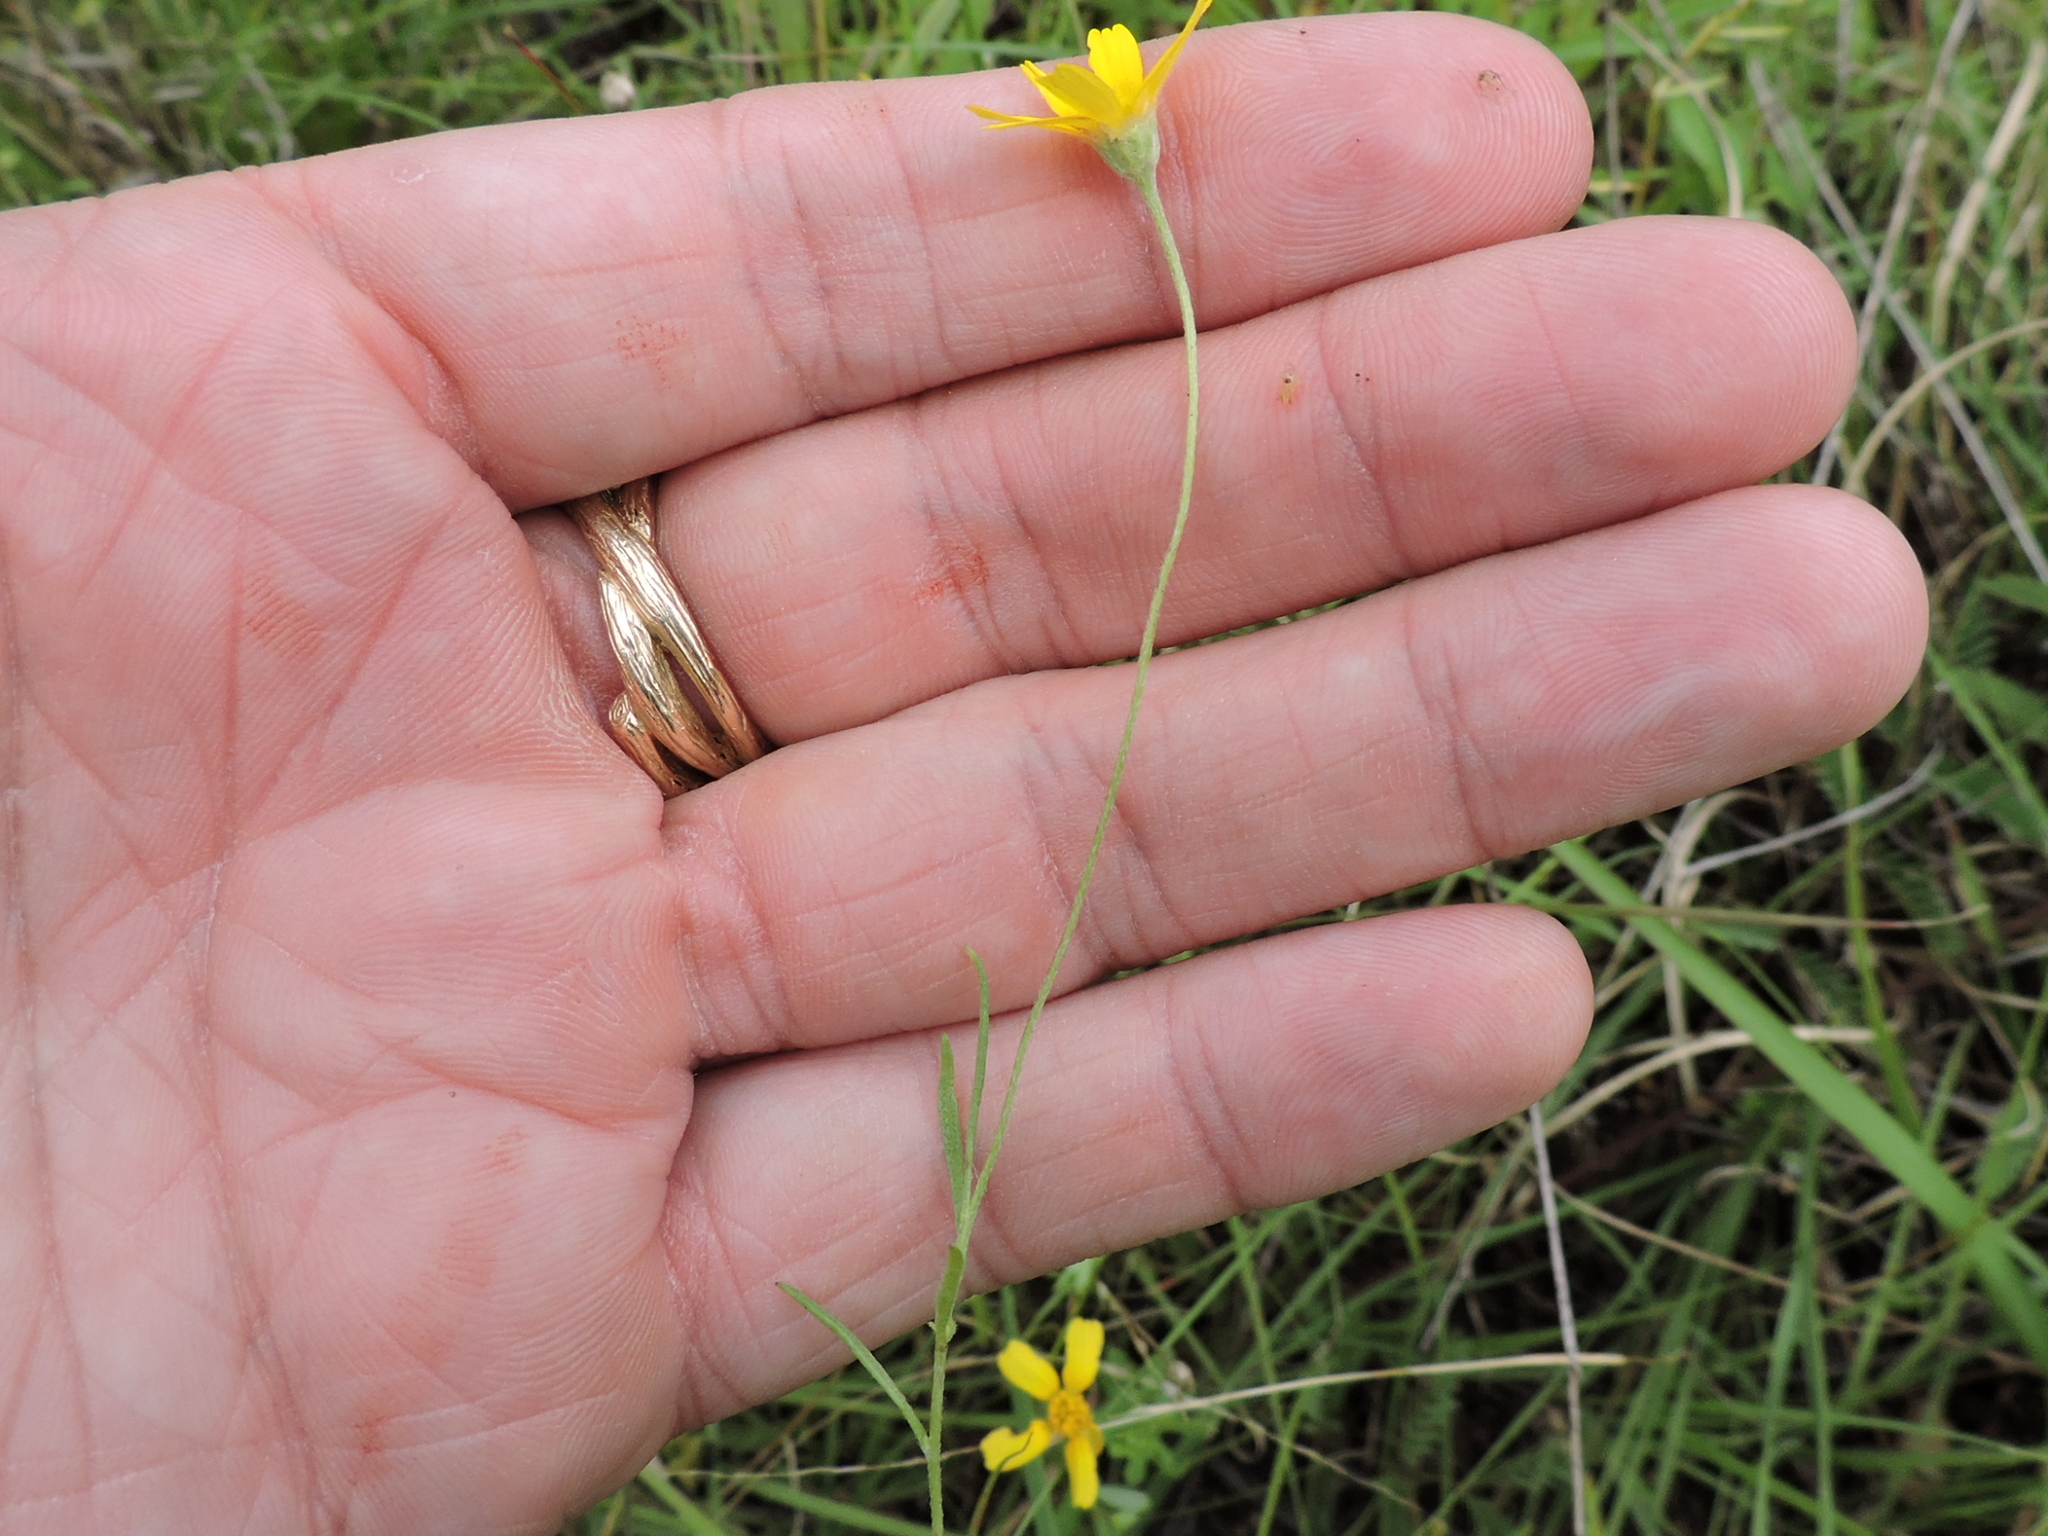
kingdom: Plantae
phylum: Tracheophyta
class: Magnoliopsida
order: Asterales
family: Asteraceae
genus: Tetraneuris
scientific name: Tetraneuris linearifolia
